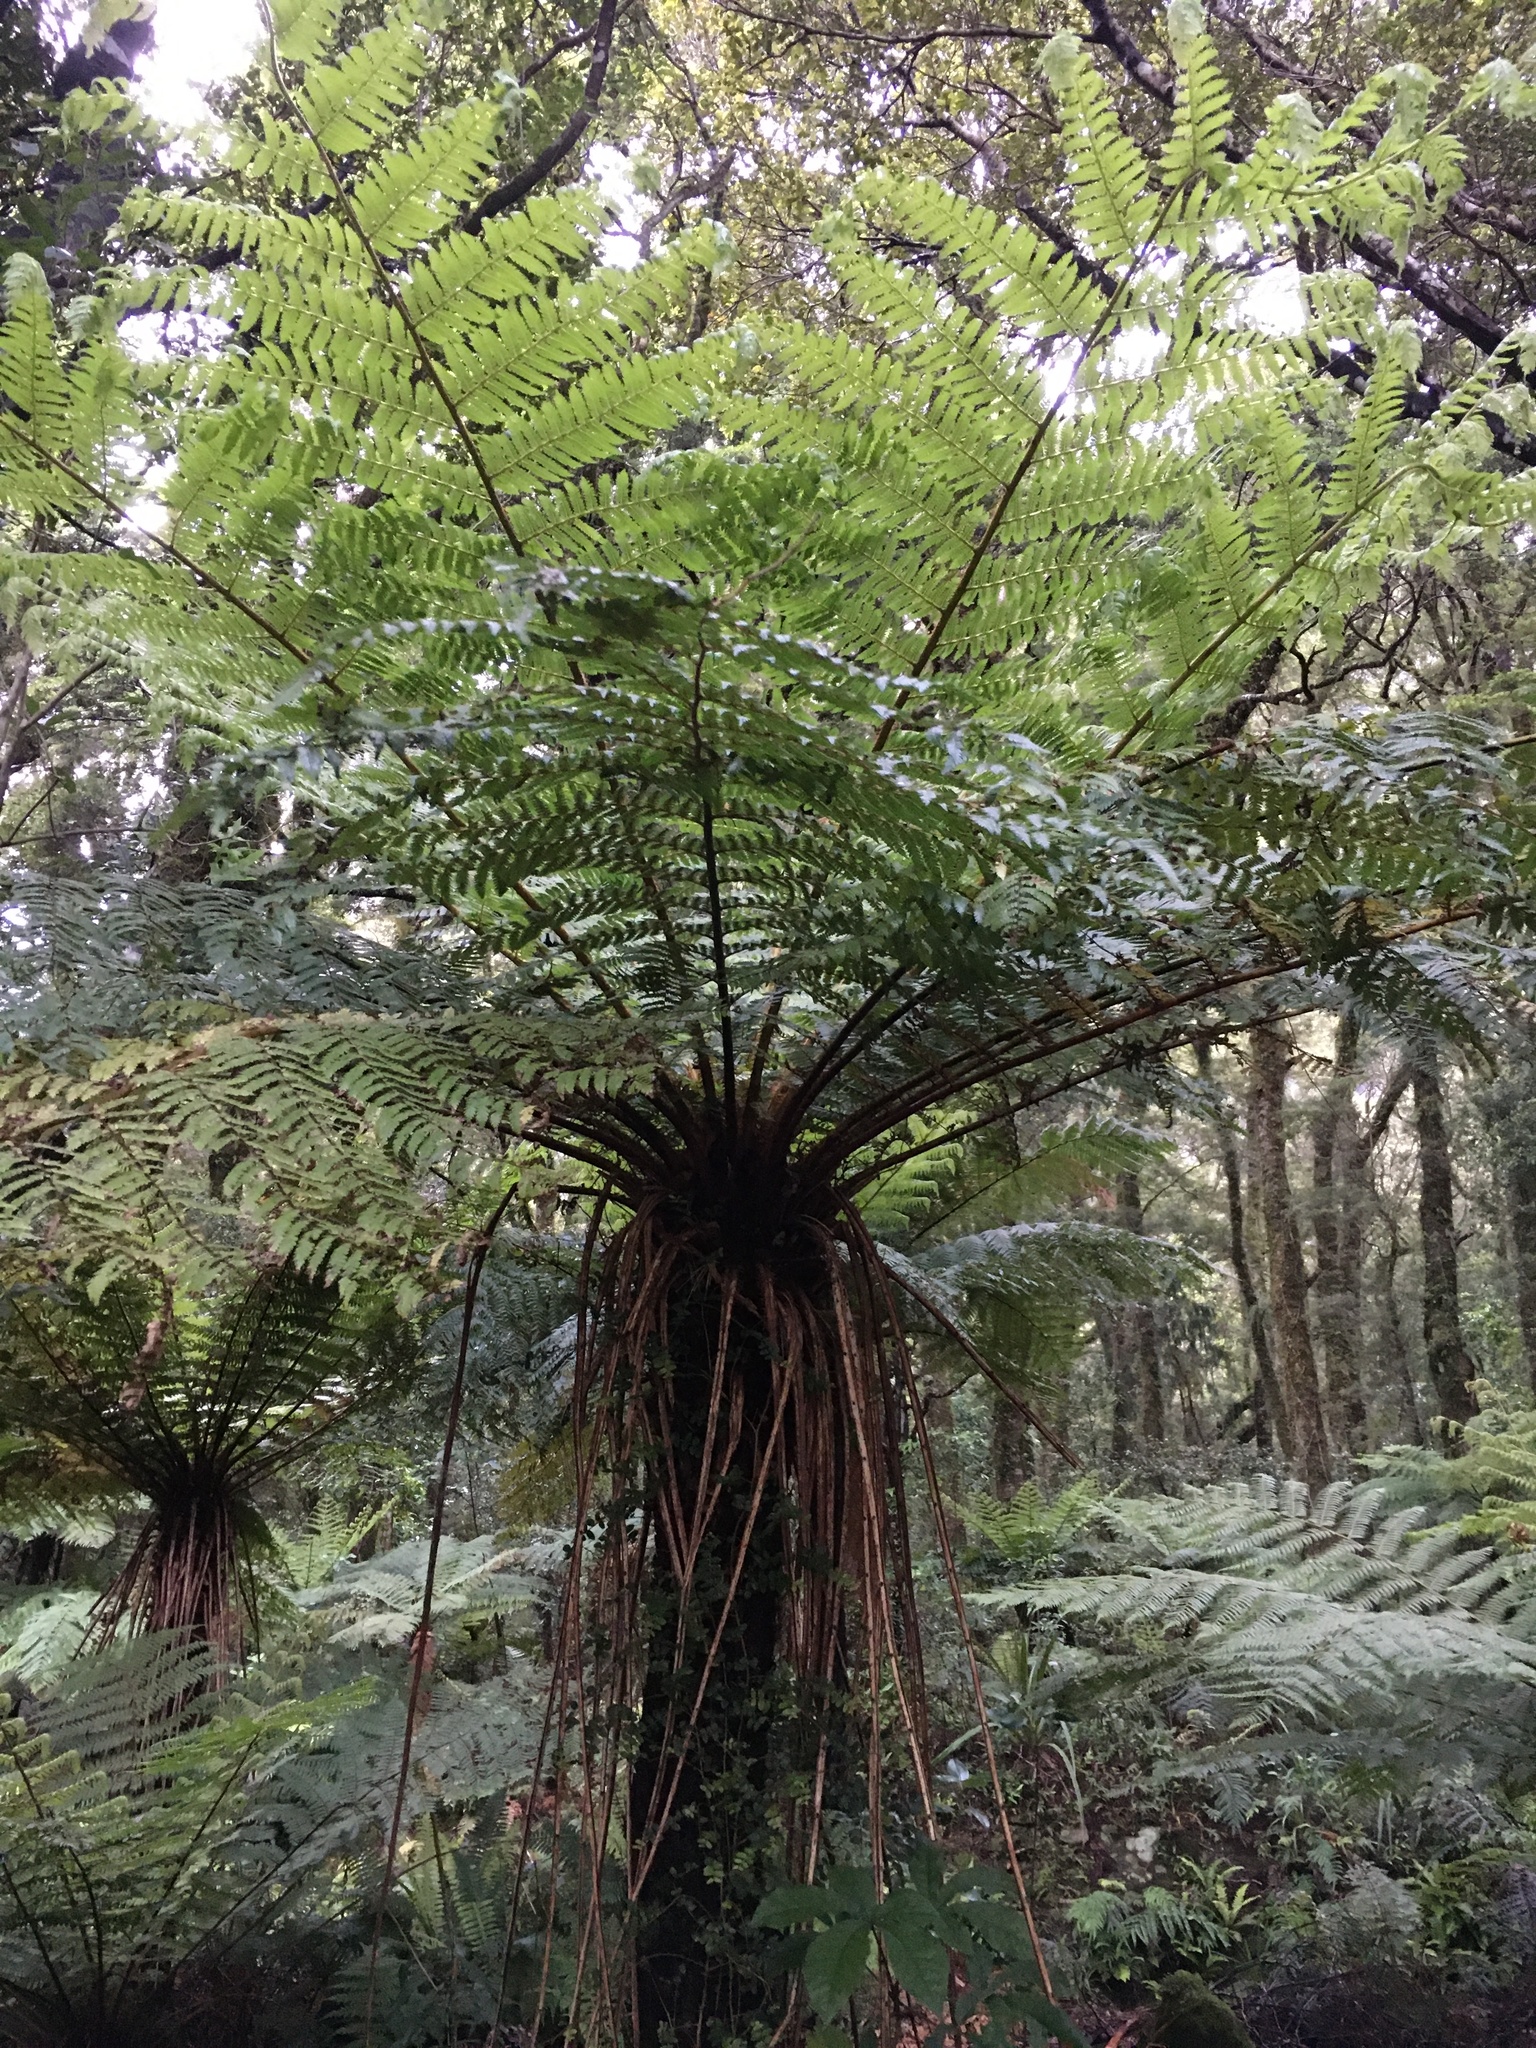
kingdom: Plantae
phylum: Tracheophyta
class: Polypodiopsida
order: Cyatheales
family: Cyatheaceae
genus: Alsophila
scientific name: Alsophila smithii
